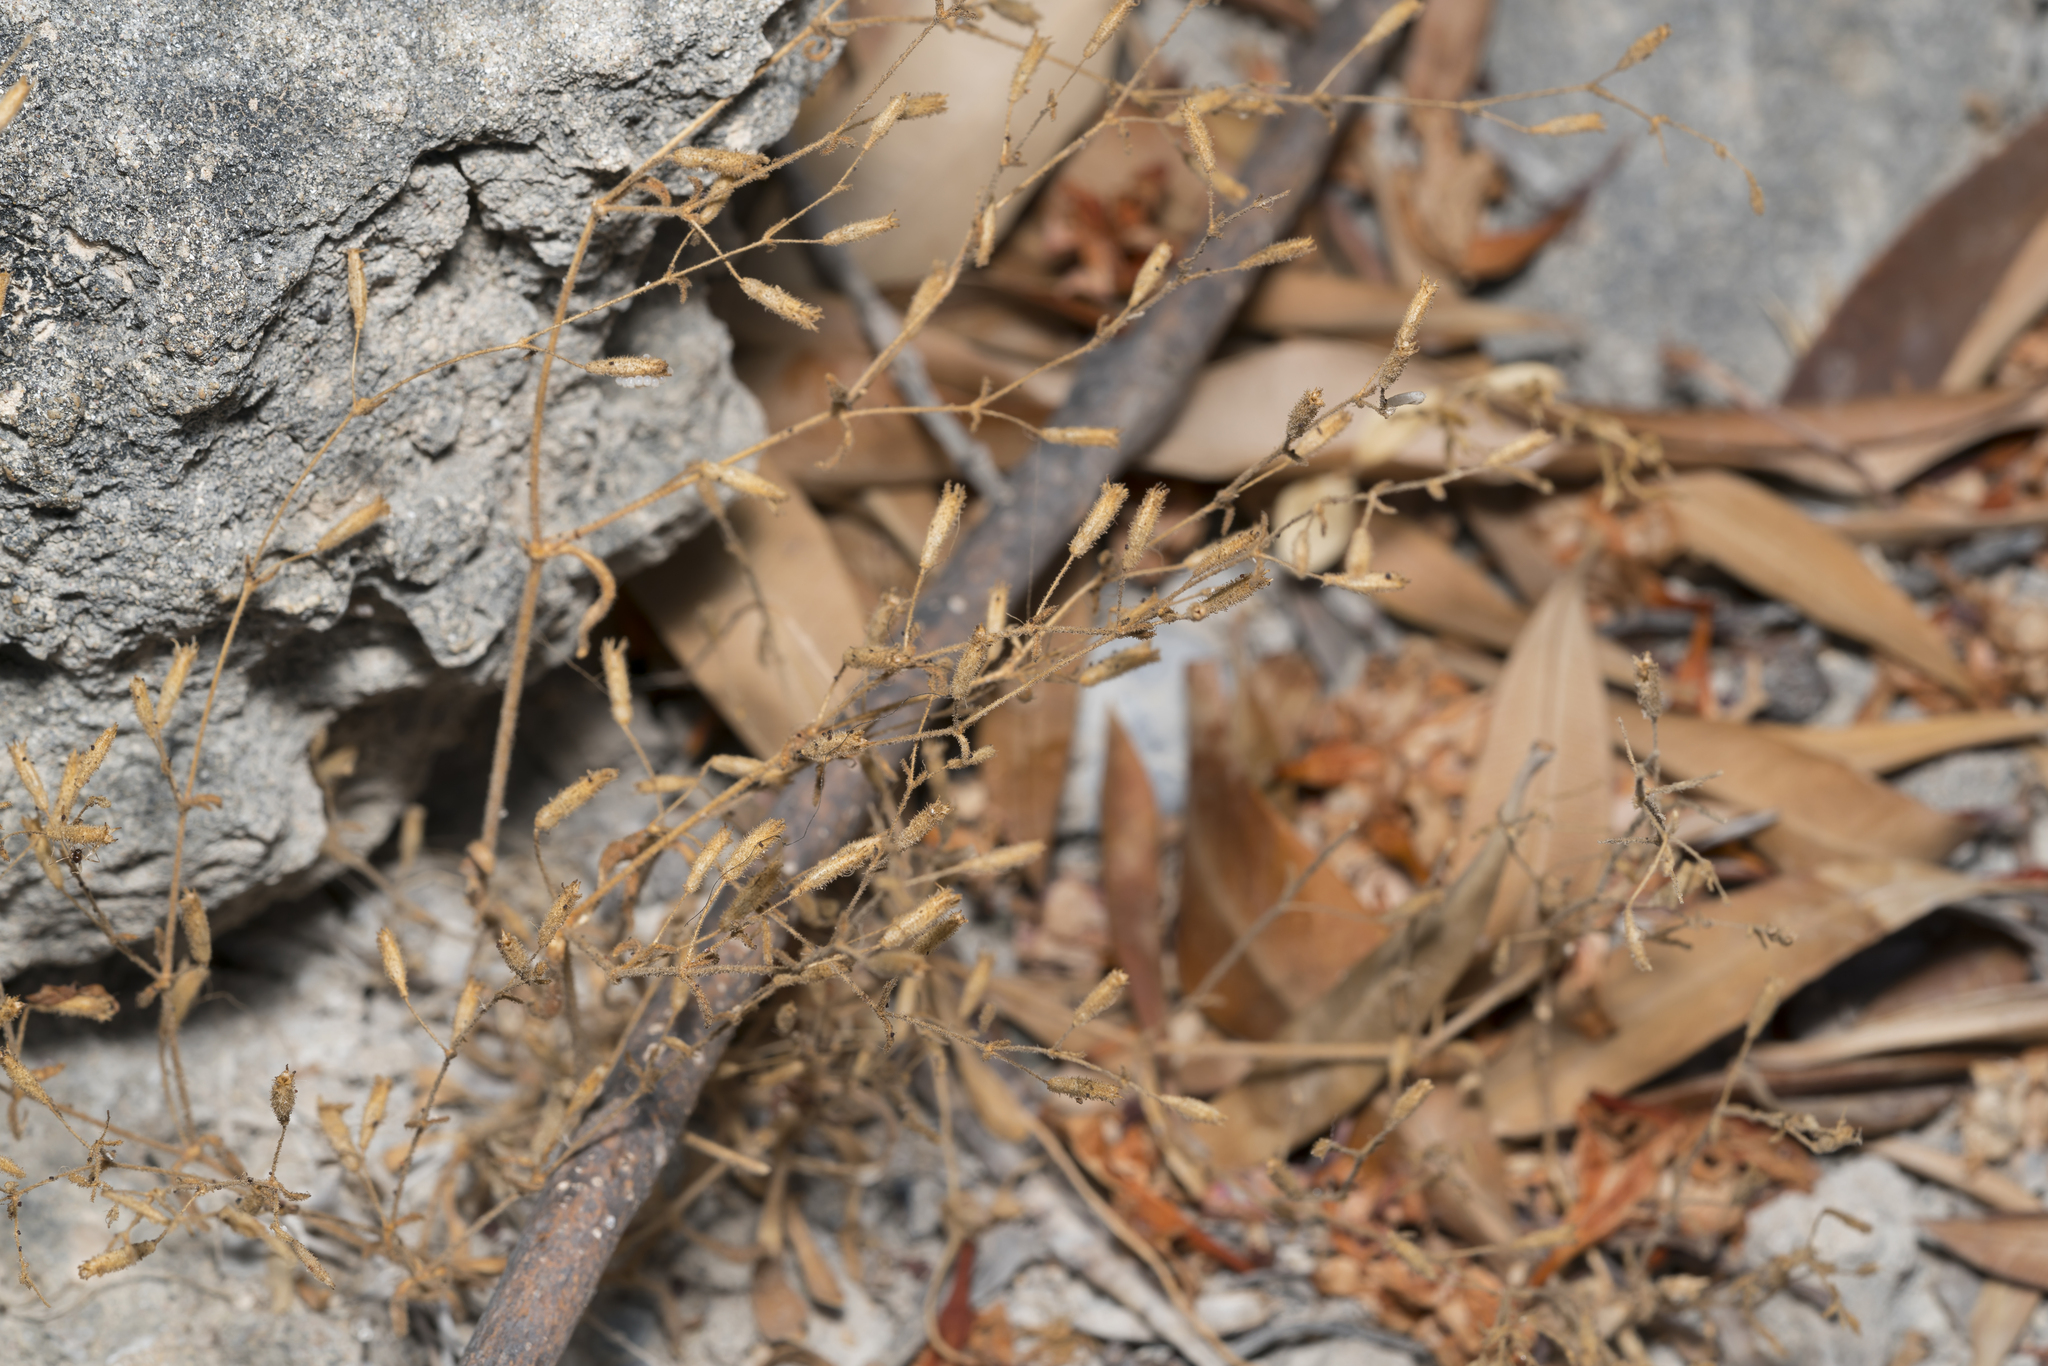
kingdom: Plantae
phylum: Tracheophyta
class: Magnoliopsida
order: Caryophyllales
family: Caryophyllaceae
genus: Silene
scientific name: Silene sedoides
